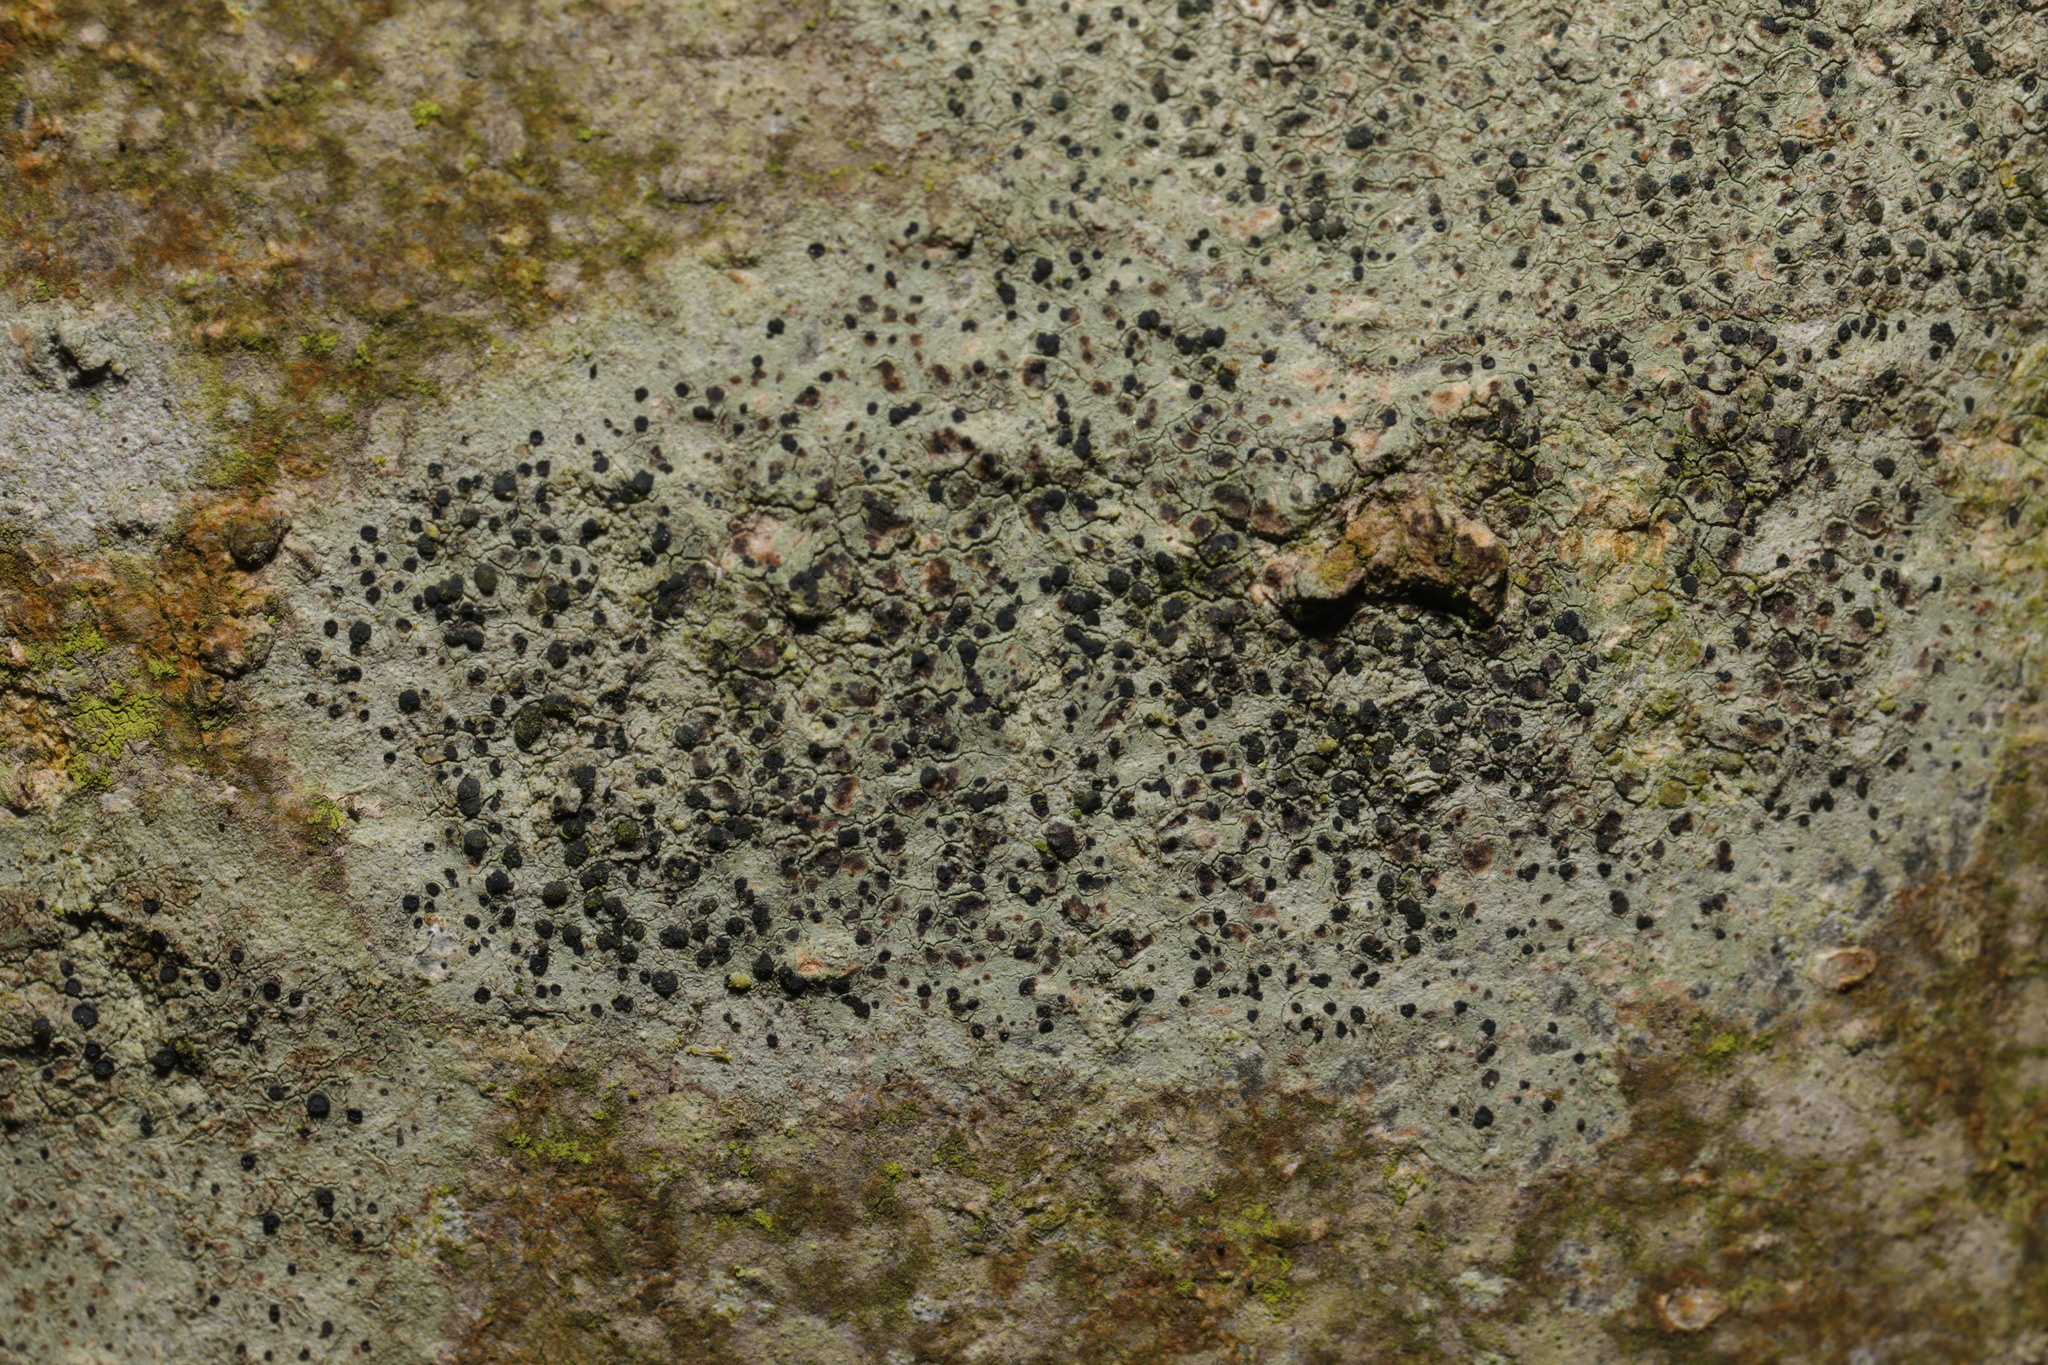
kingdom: Fungi
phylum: Ascomycota
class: Lecanoromycetes
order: Lecanorales
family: Lecanoraceae
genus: Lecidella
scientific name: Lecidella elaeochroma
